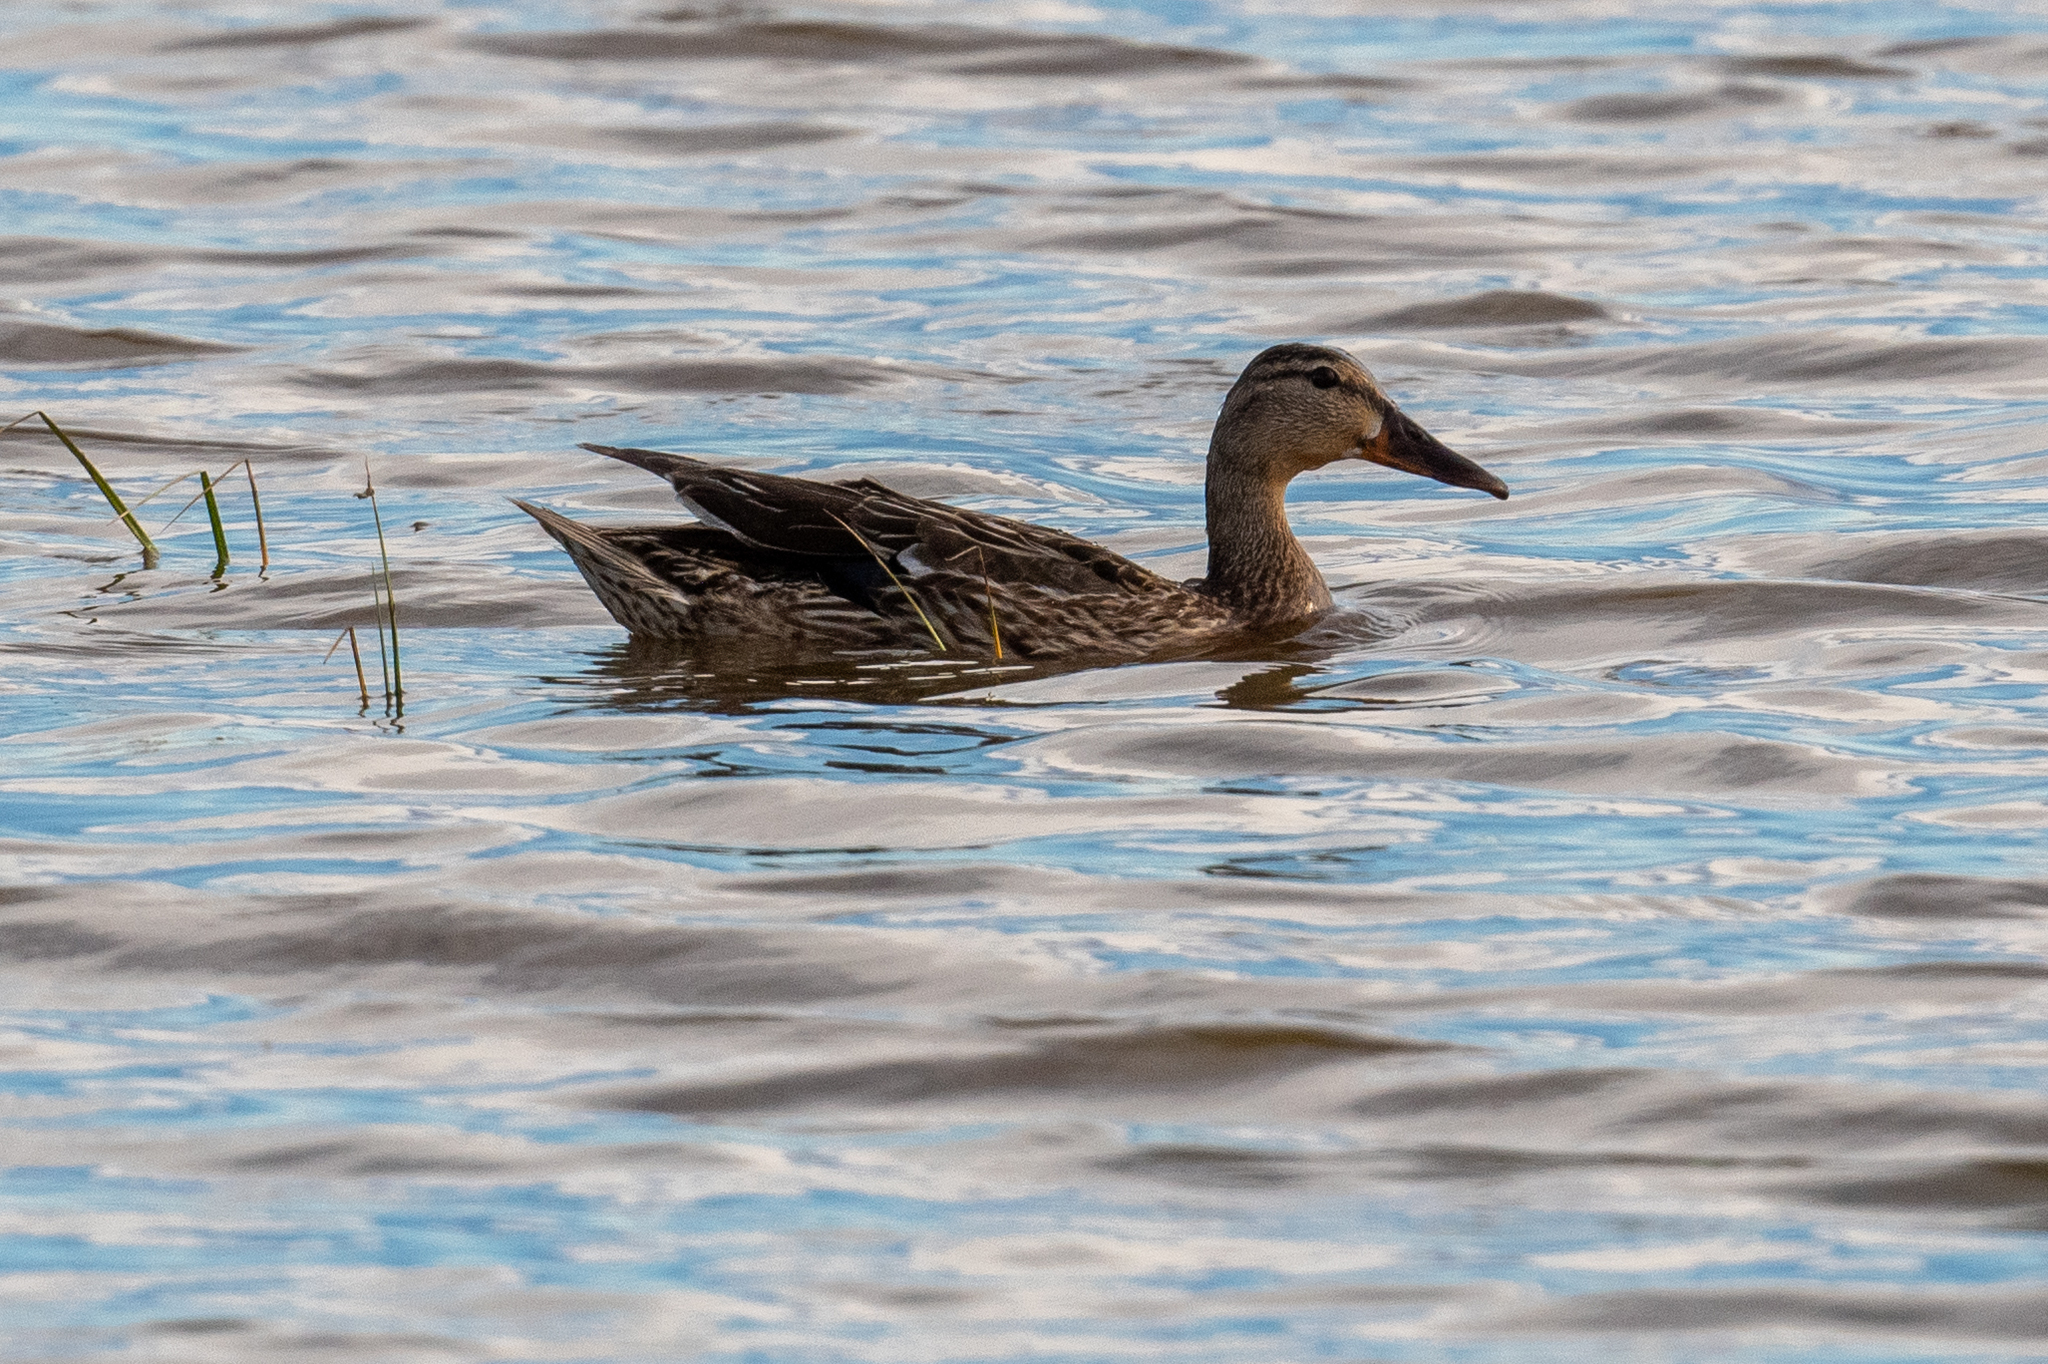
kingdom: Animalia
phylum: Chordata
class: Aves
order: Anseriformes
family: Anatidae
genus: Anas
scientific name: Anas platyrhynchos
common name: Mallard
